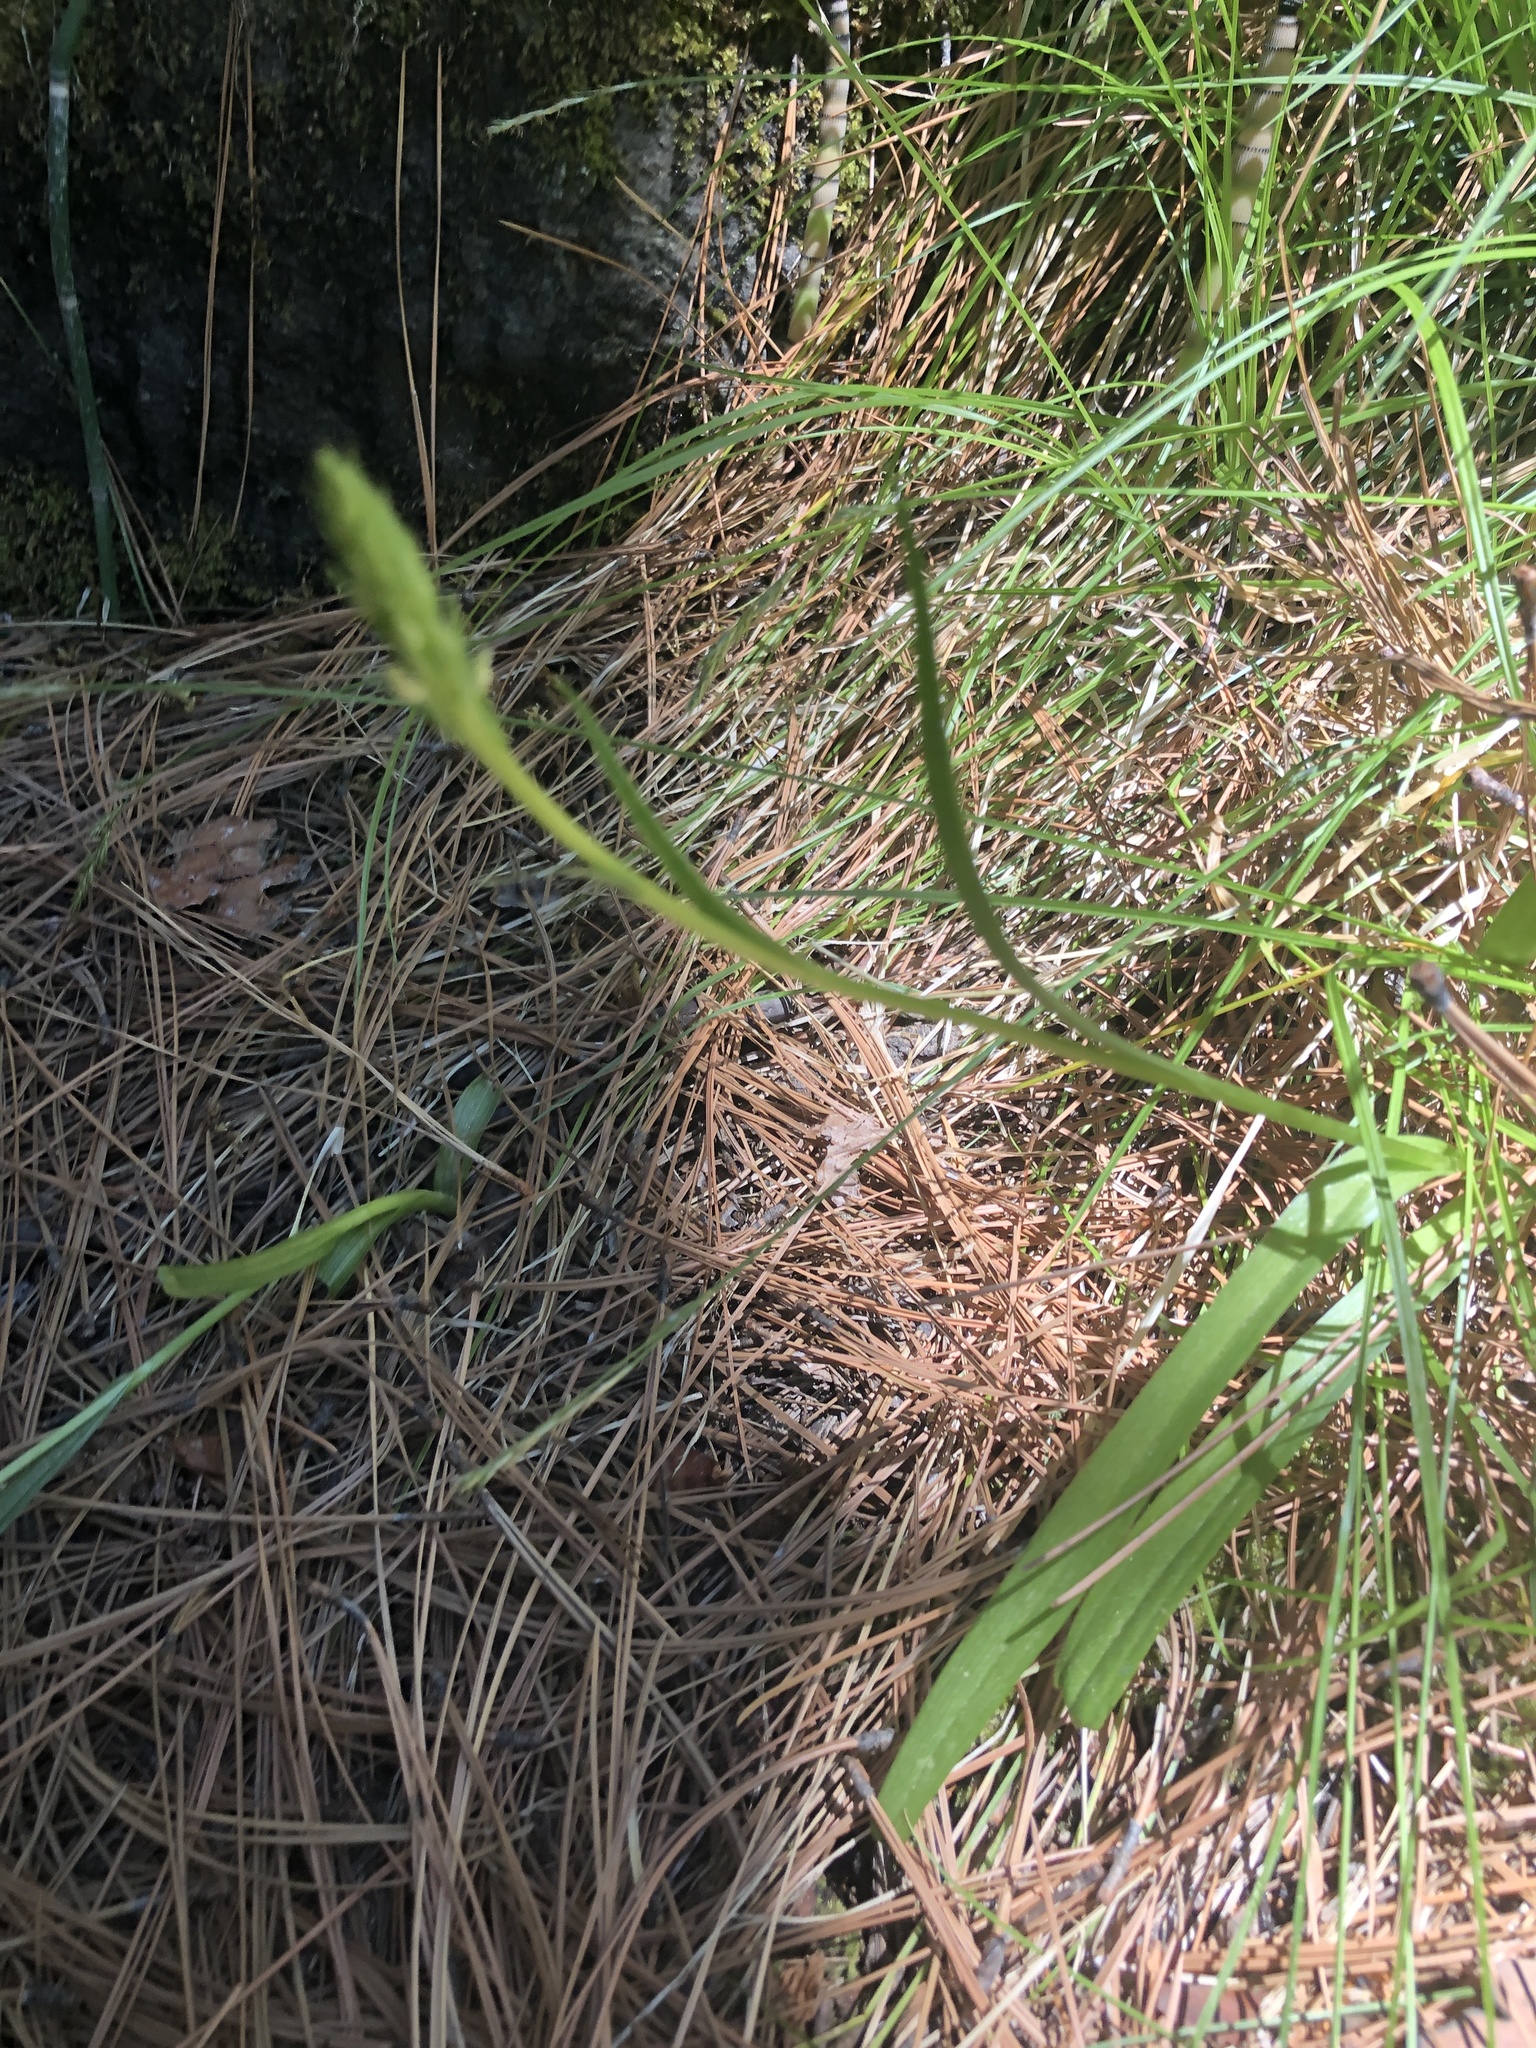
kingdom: Plantae
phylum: Tracheophyta
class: Liliopsida
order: Asparagales
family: Orchidaceae
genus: Platanthera
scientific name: Platanthera dilatata
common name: Bog candles
